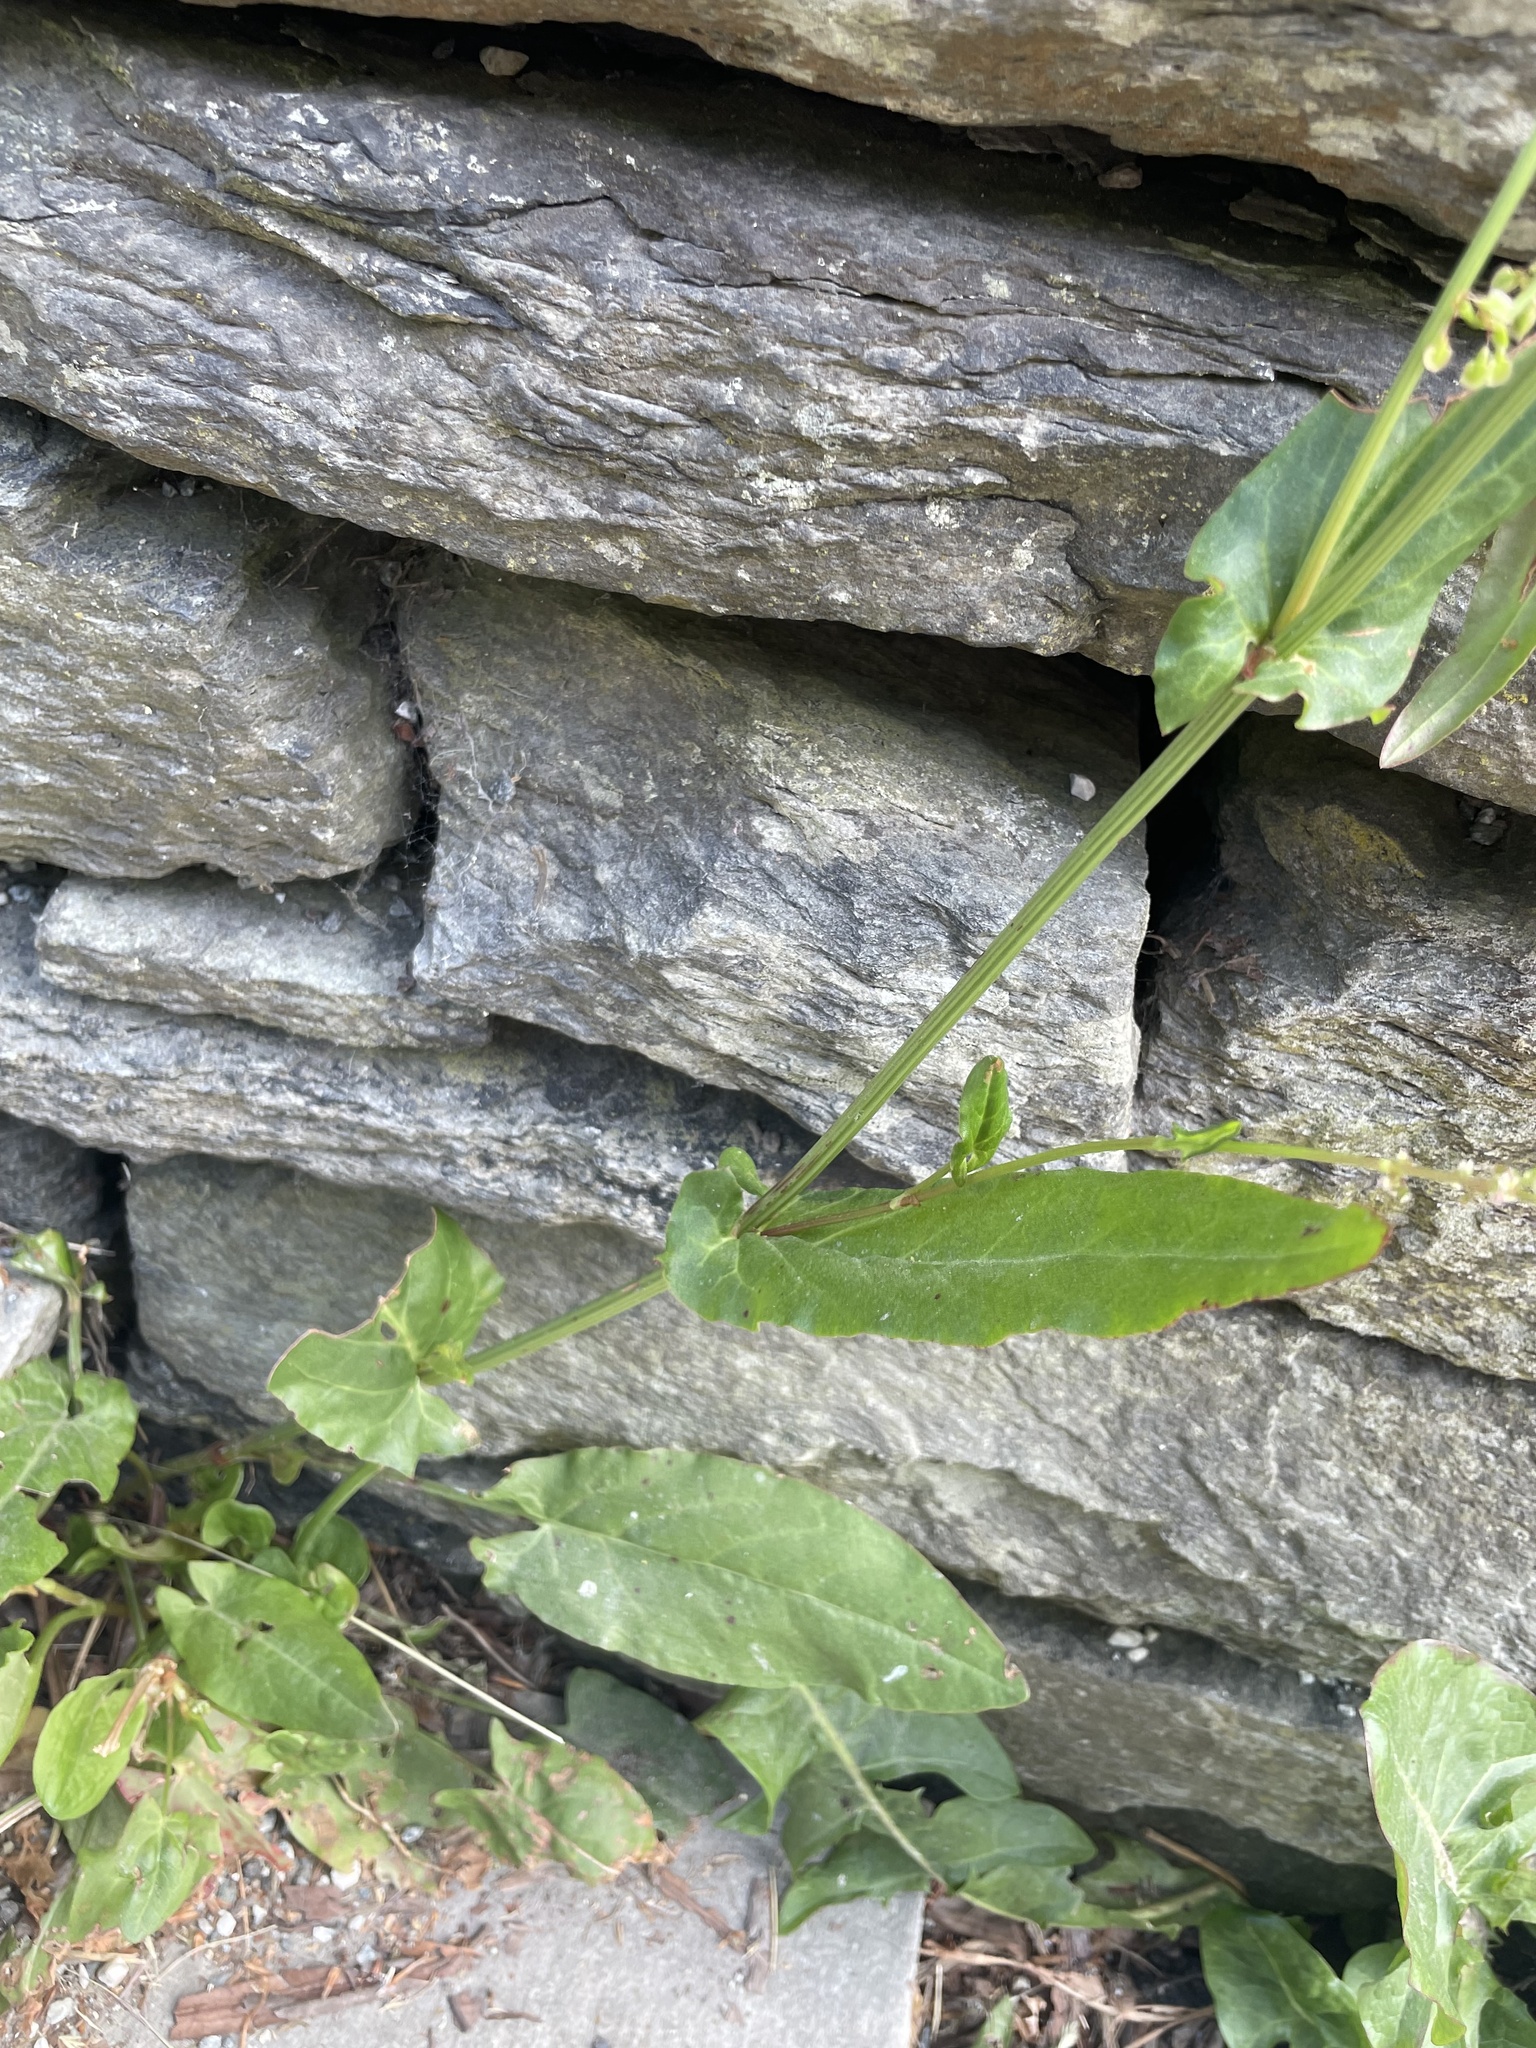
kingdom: Plantae
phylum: Tracheophyta
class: Magnoliopsida
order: Caryophyllales
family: Polygonaceae
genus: Rumex
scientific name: Rumex acetosa
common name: Garden sorrel
